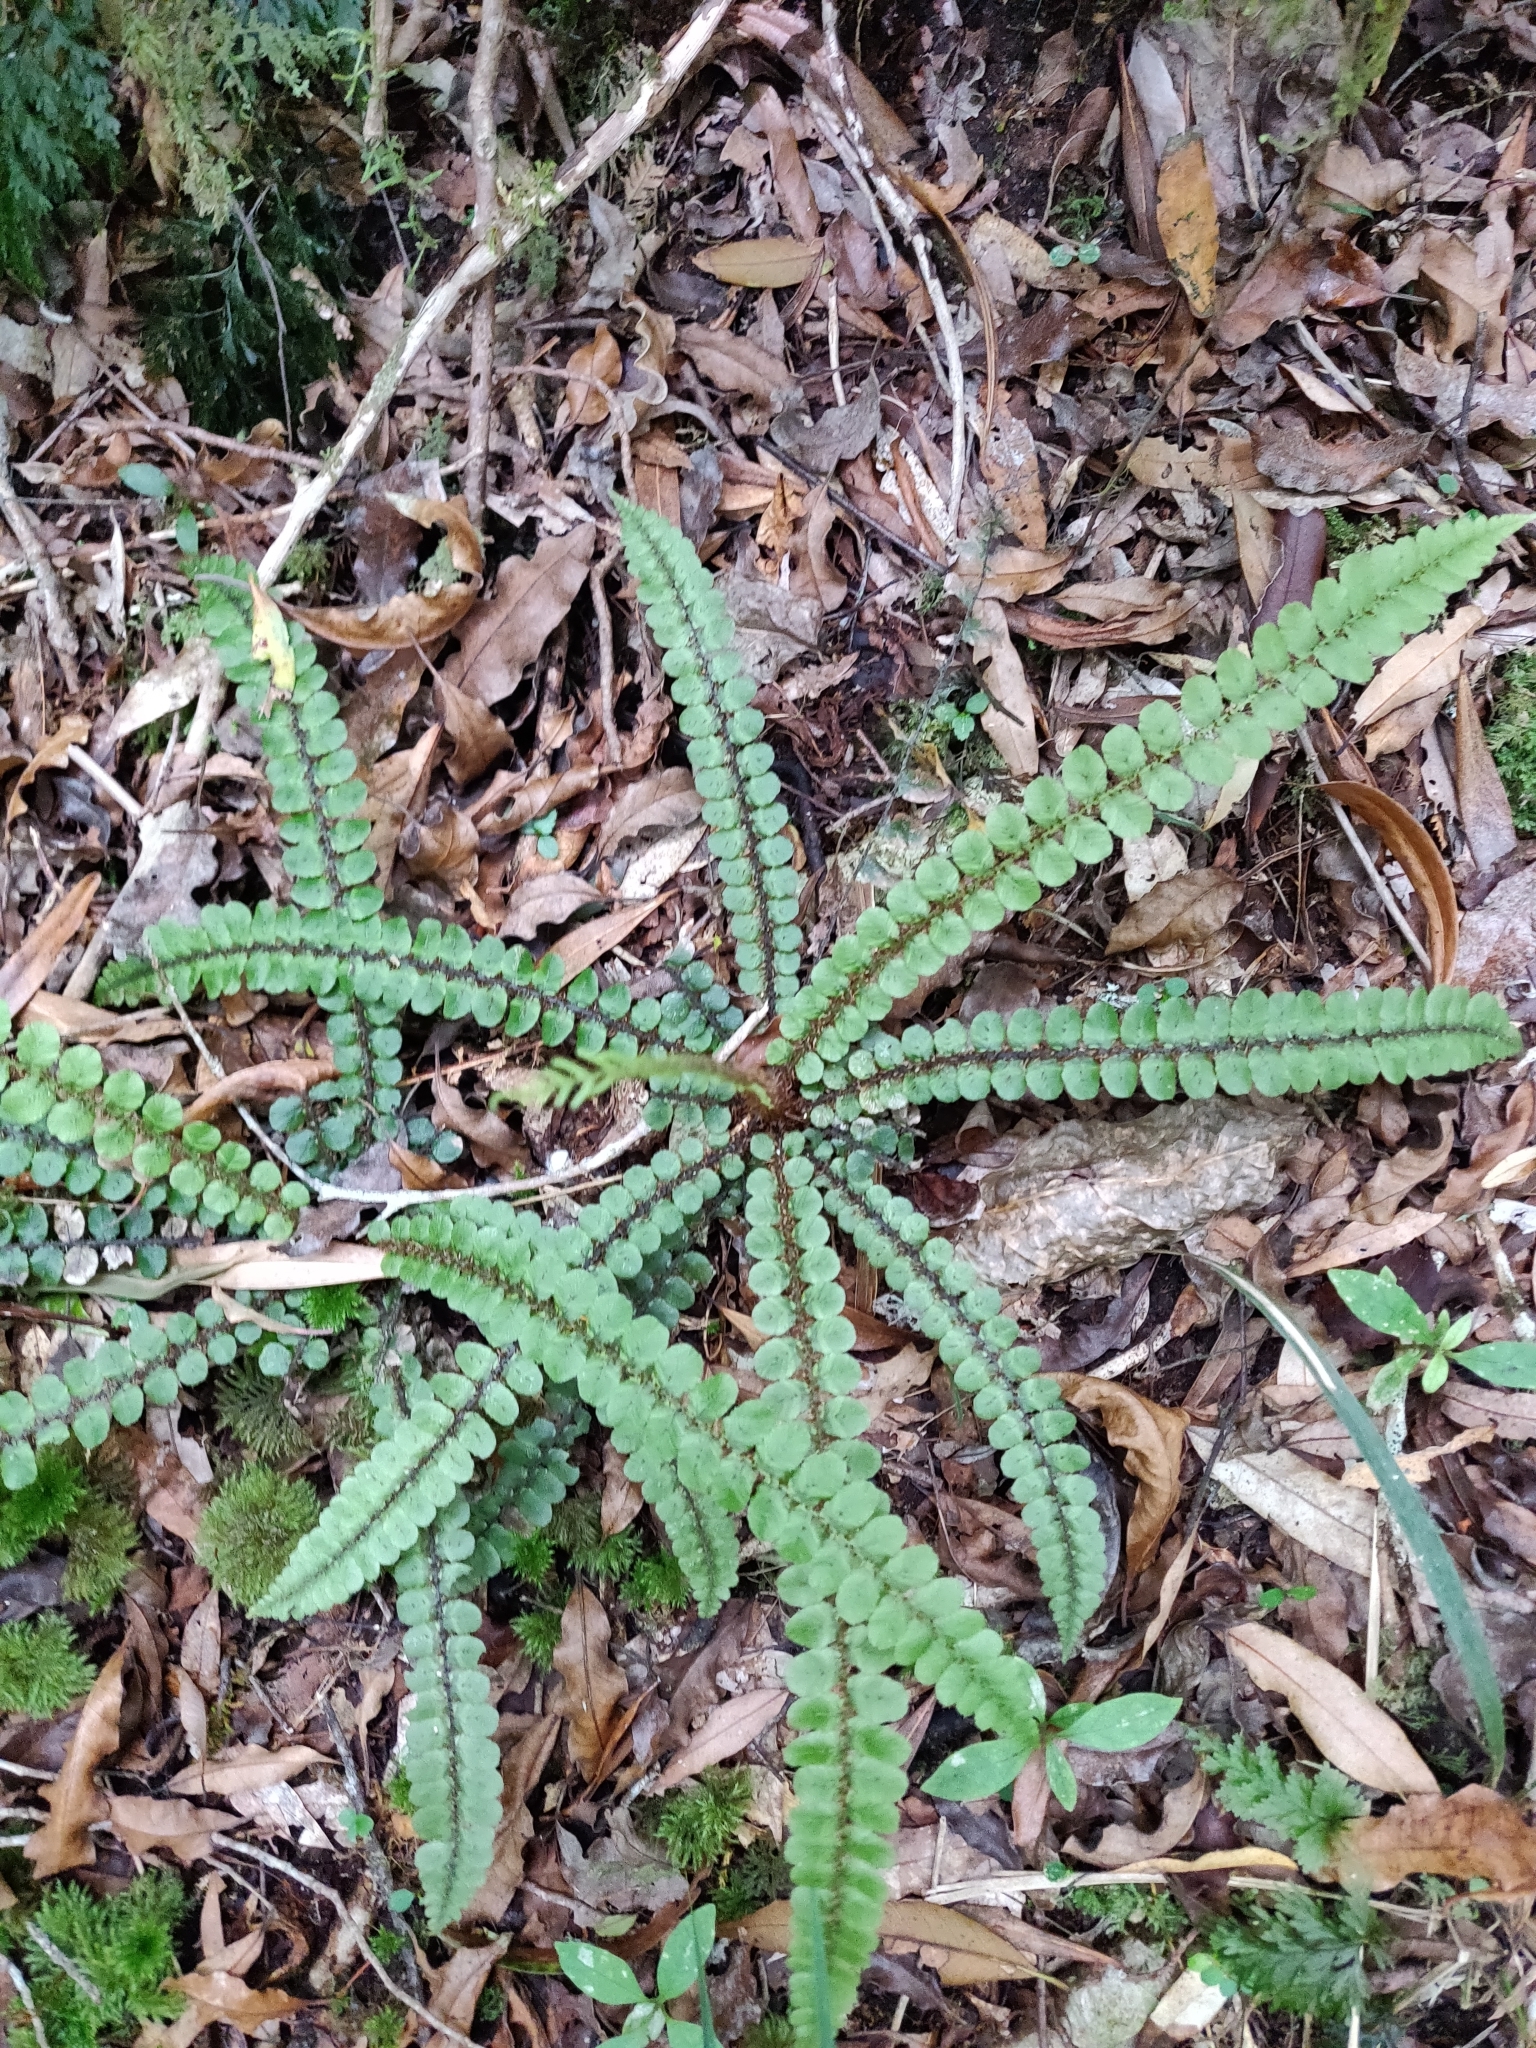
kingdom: Plantae
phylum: Tracheophyta
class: Polypodiopsida
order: Polypodiales
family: Blechnaceae
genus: Cranfillia
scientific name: Cranfillia fluviatilis
